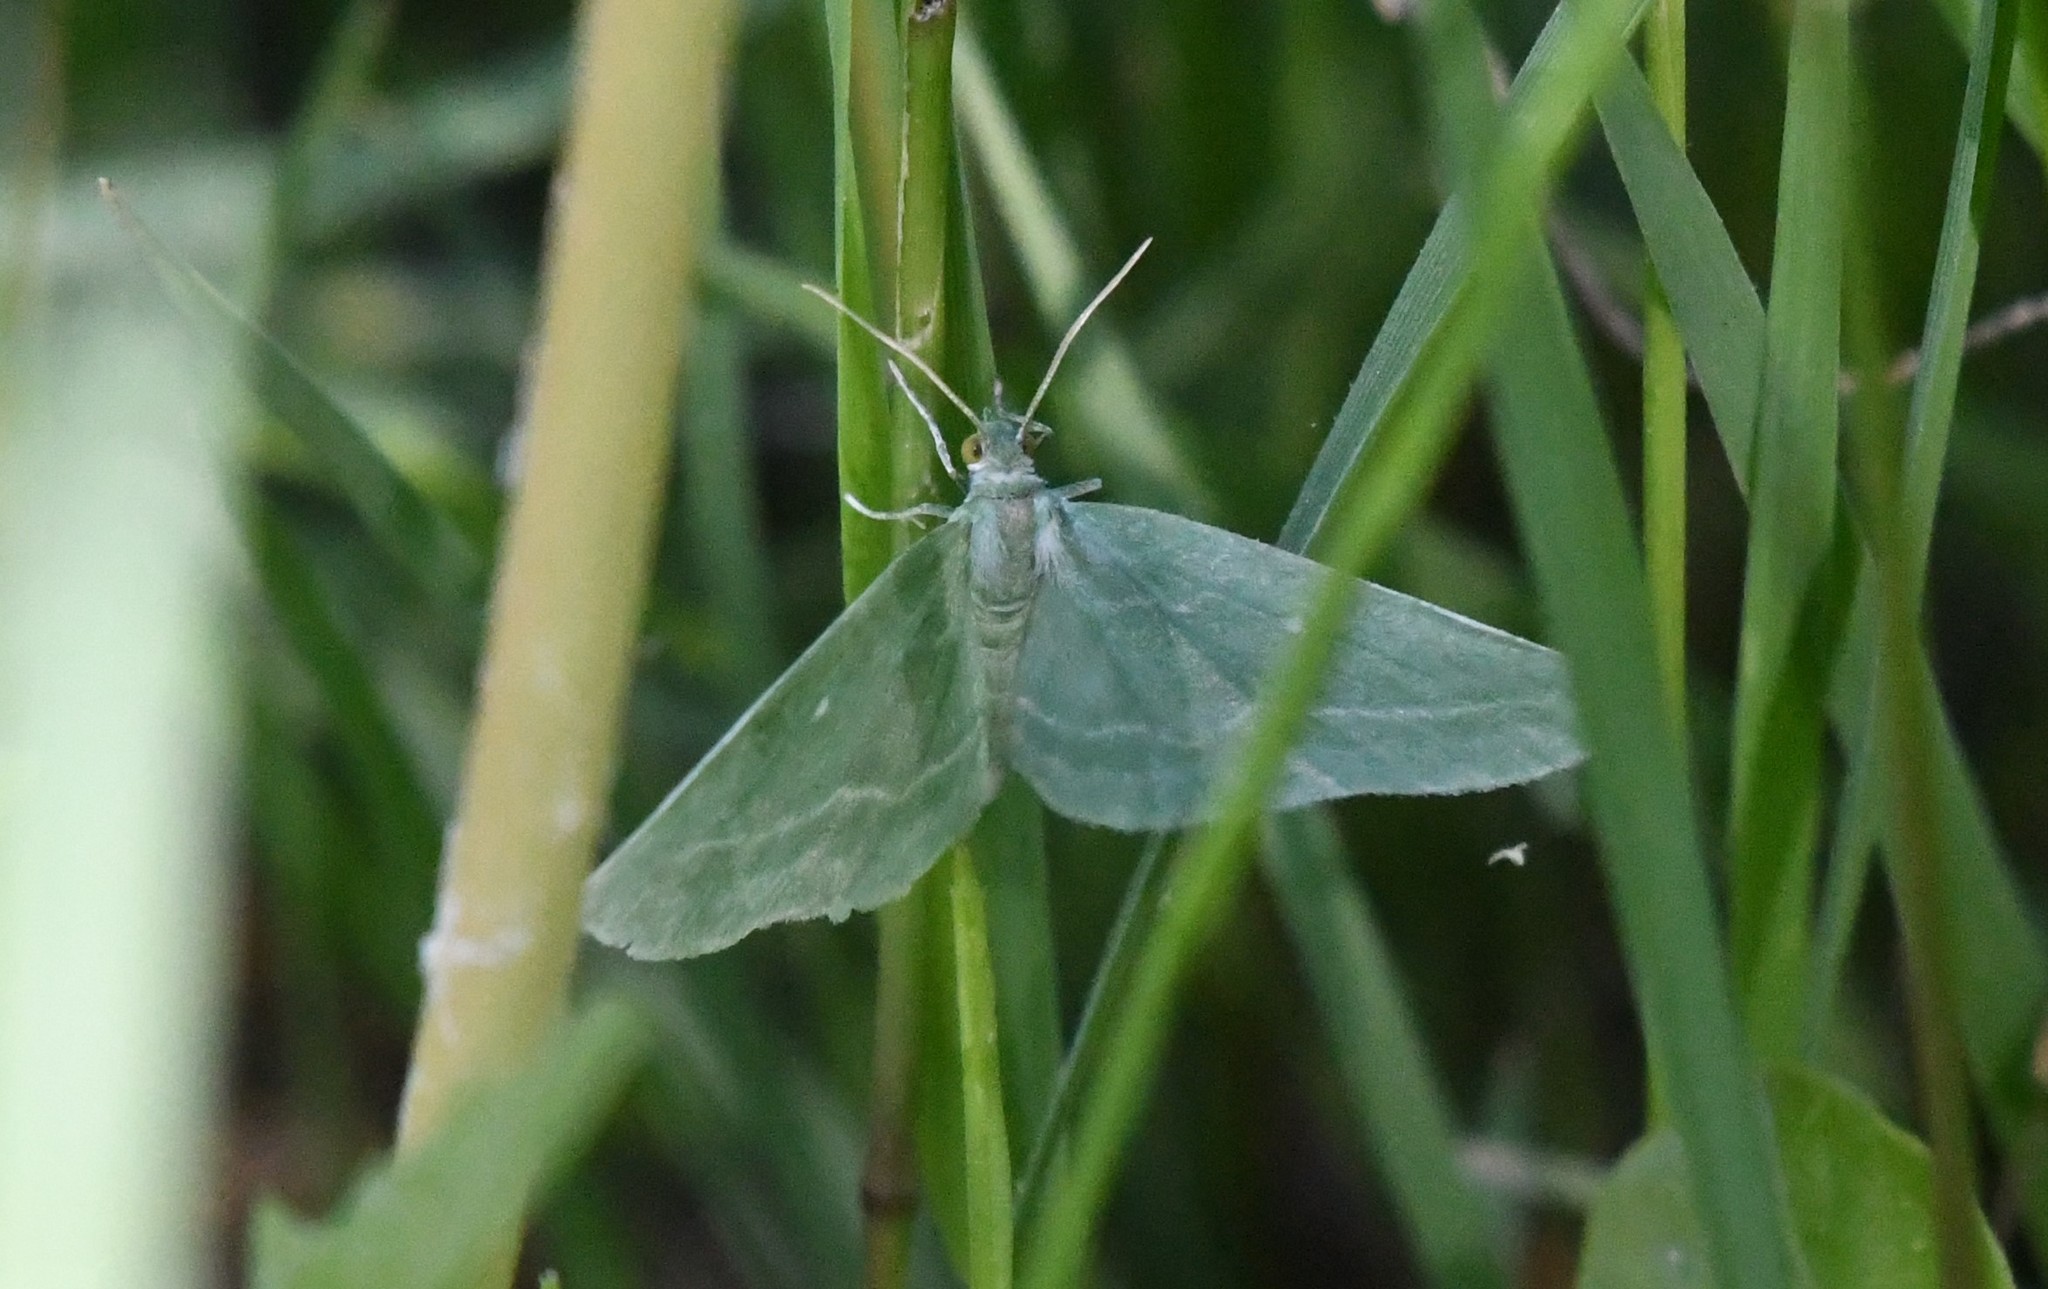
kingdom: Animalia
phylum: Arthropoda
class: Insecta
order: Lepidoptera
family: Geometridae
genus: Dyspteris
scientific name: Dyspteris abortivaria
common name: Bad-wing
